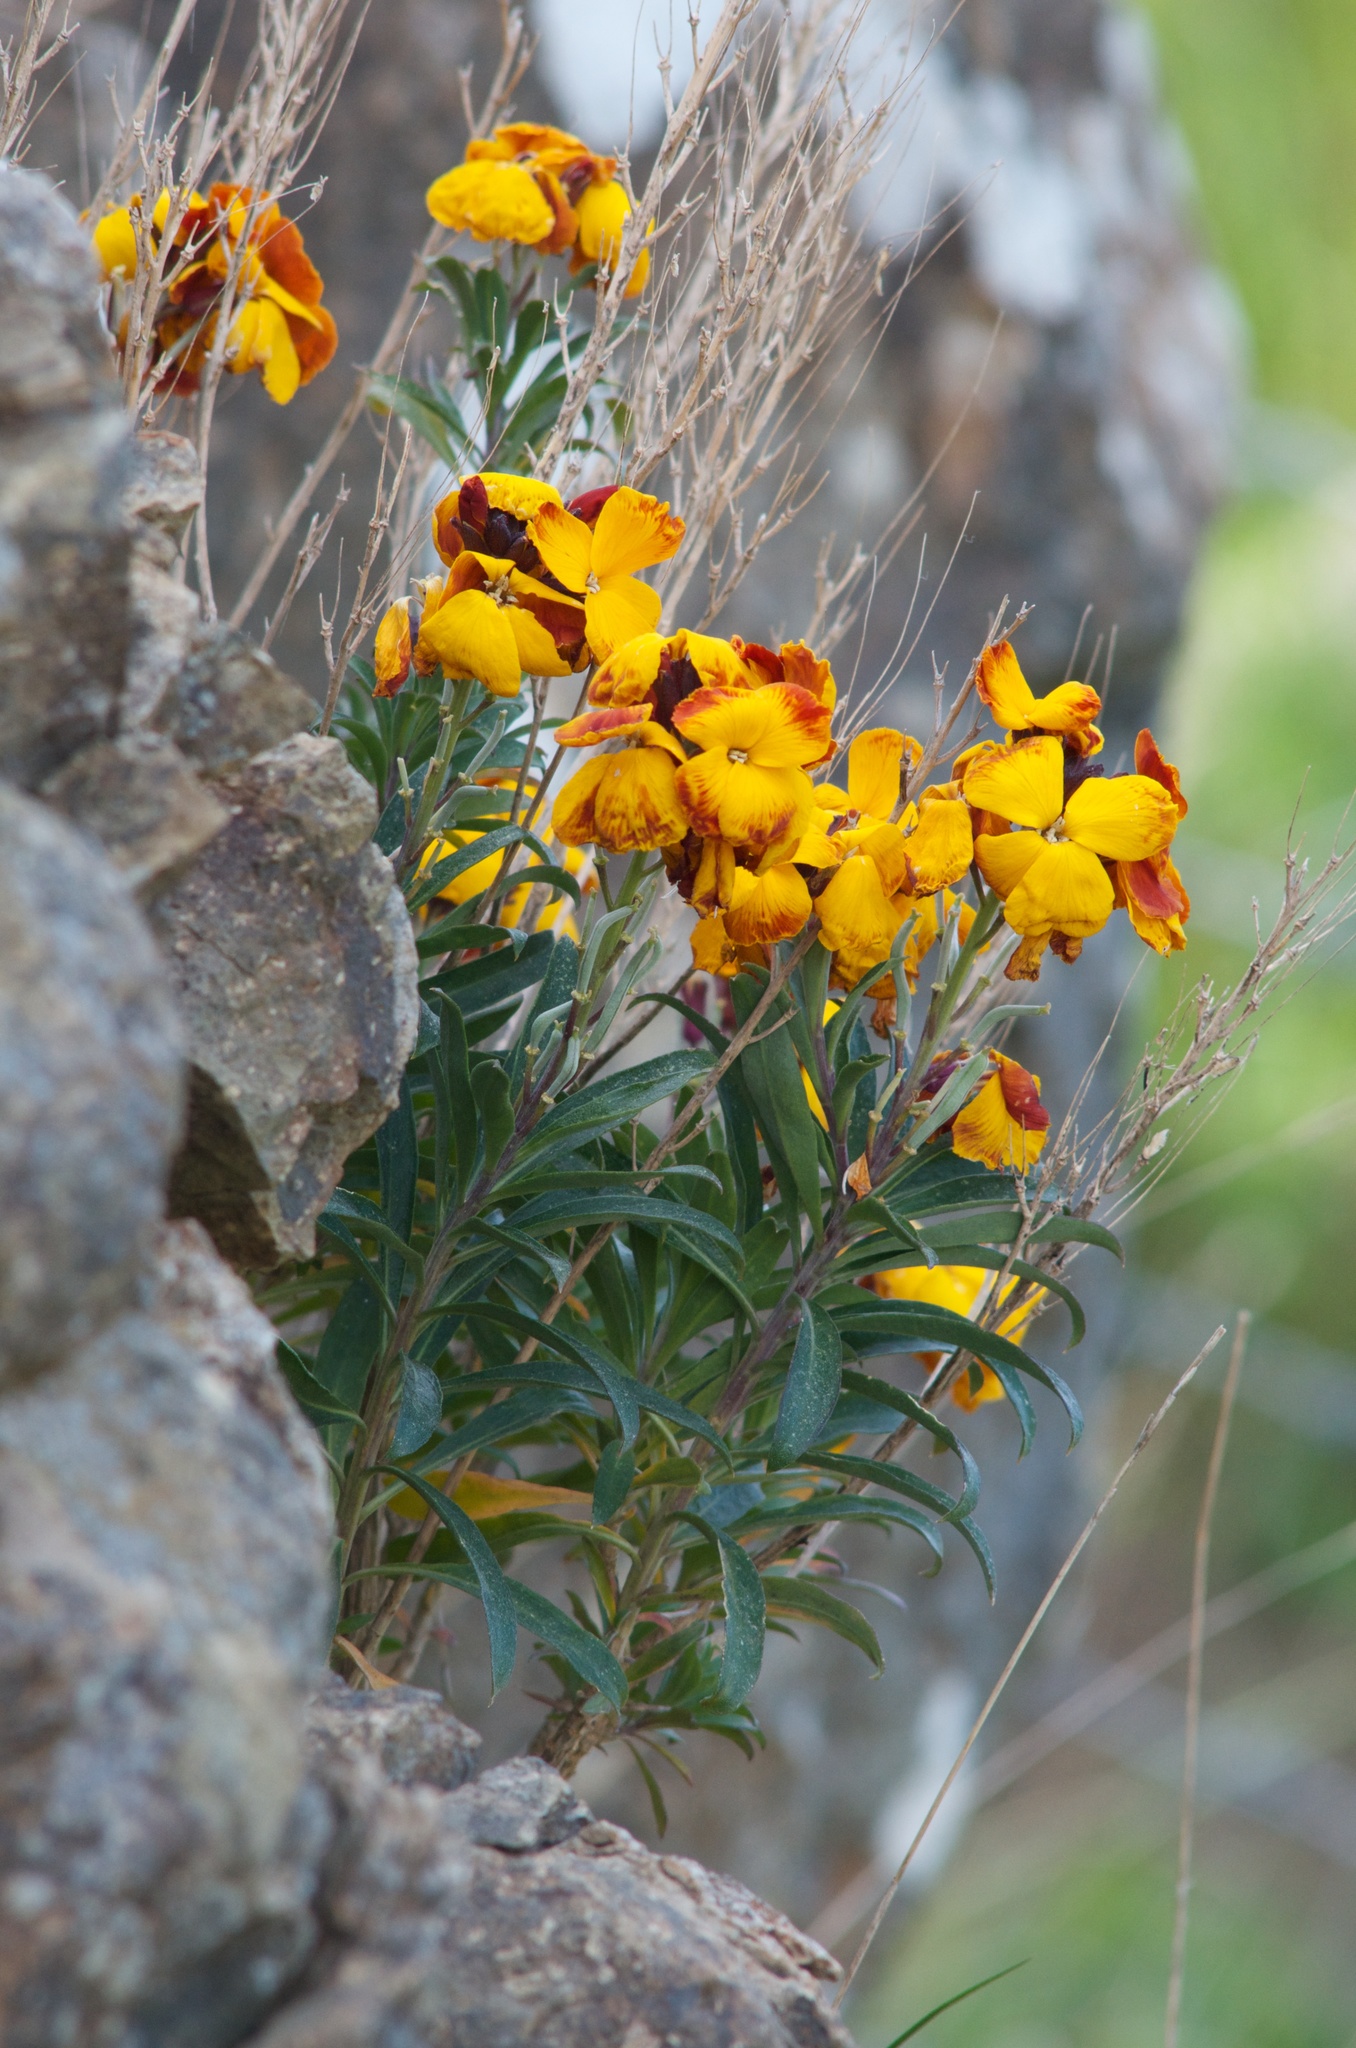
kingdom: Plantae
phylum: Tracheophyta
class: Magnoliopsida
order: Brassicales
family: Brassicaceae
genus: Erysimum
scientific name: Erysimum cheiri
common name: Wallflower
